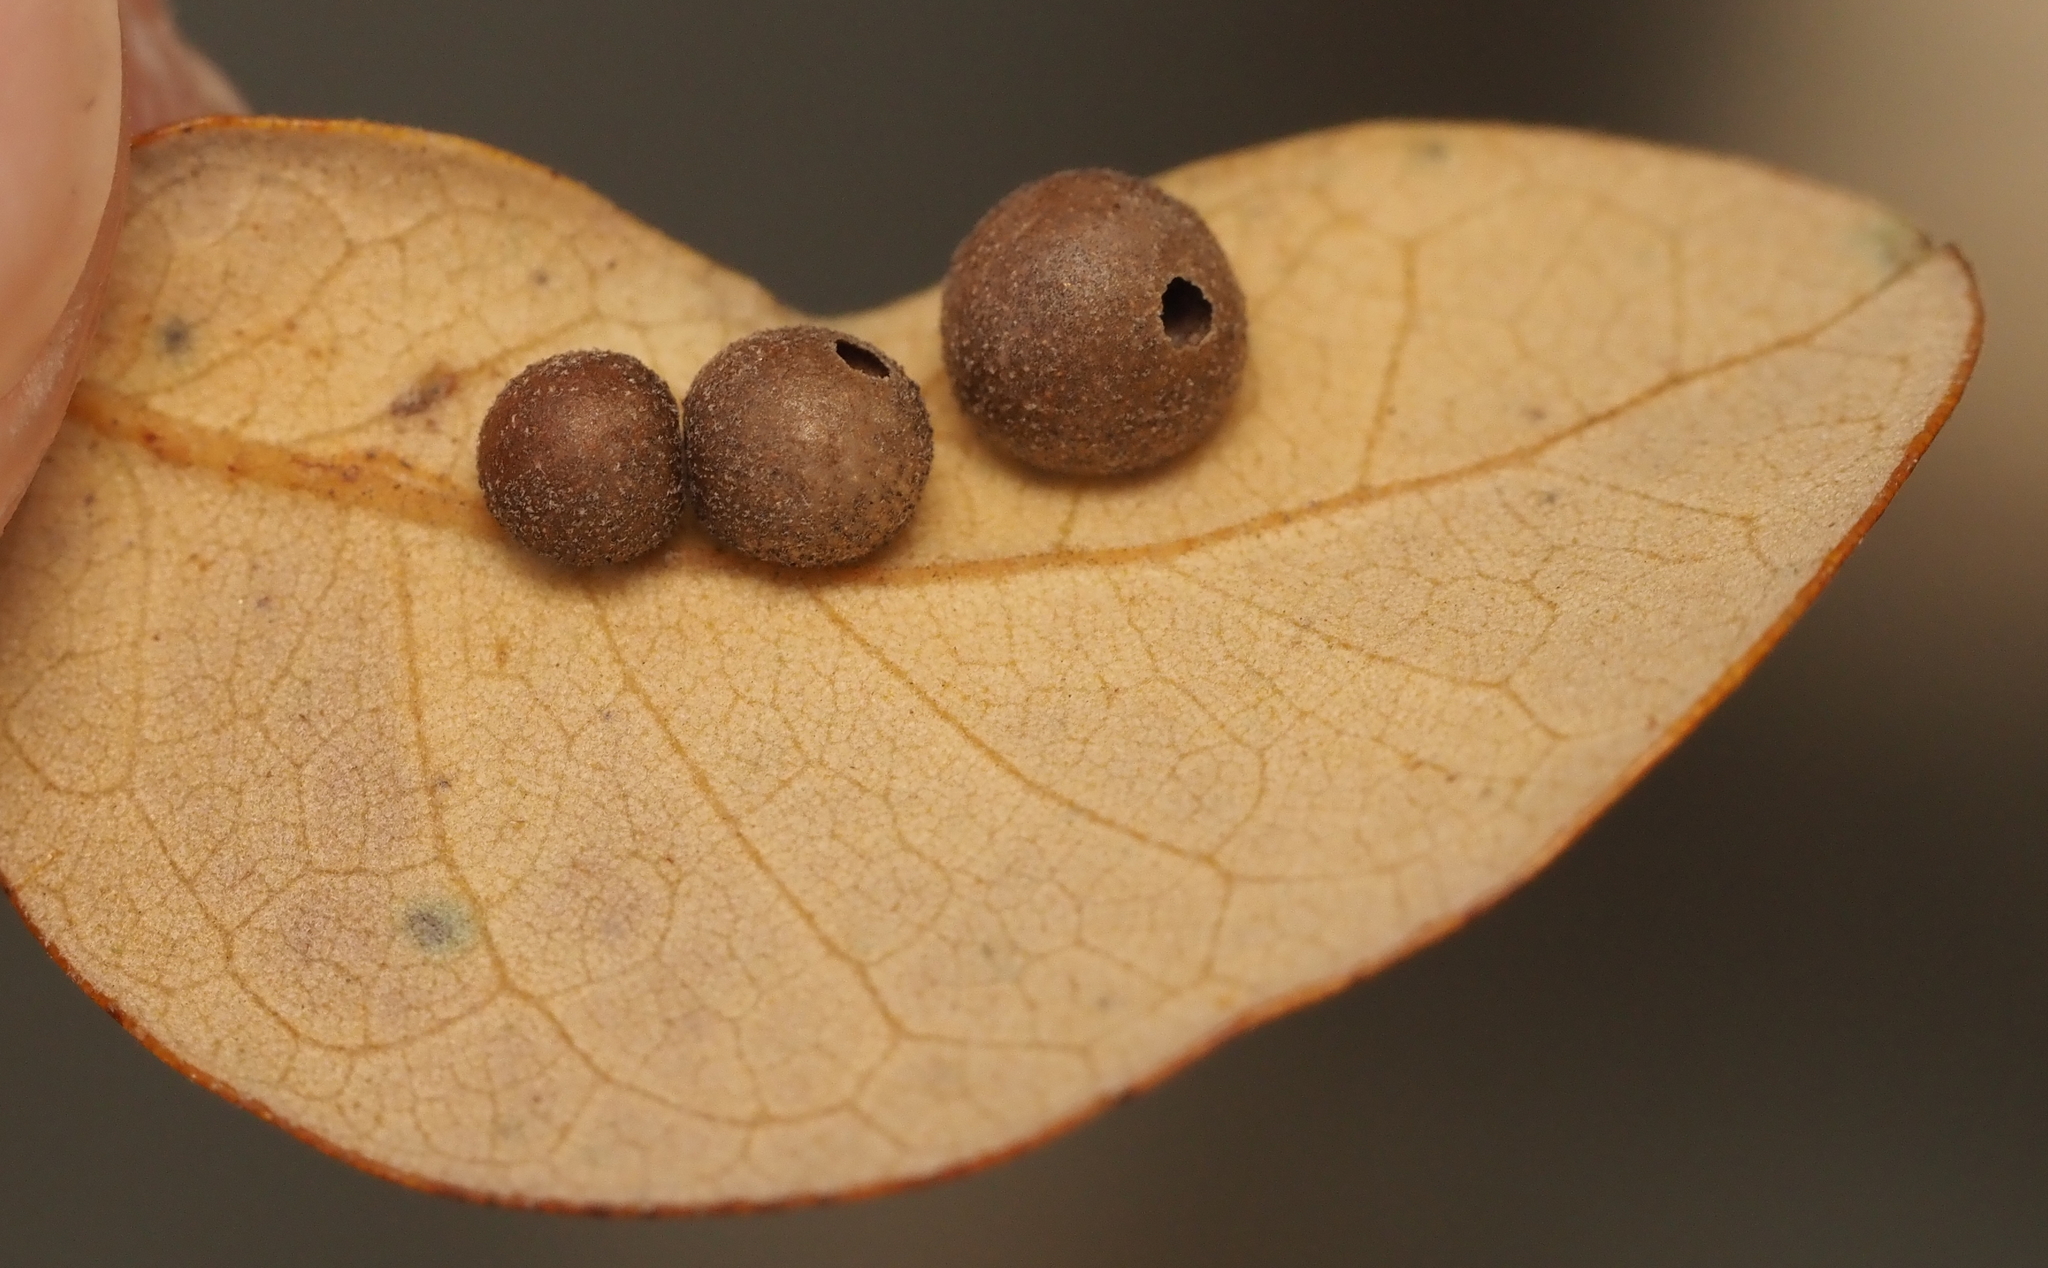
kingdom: Animalia
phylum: Arthropoda
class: Insecta
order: Hymenoptera
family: Cynipidae
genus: Belonocnema
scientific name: Belonocnema kinseyi
